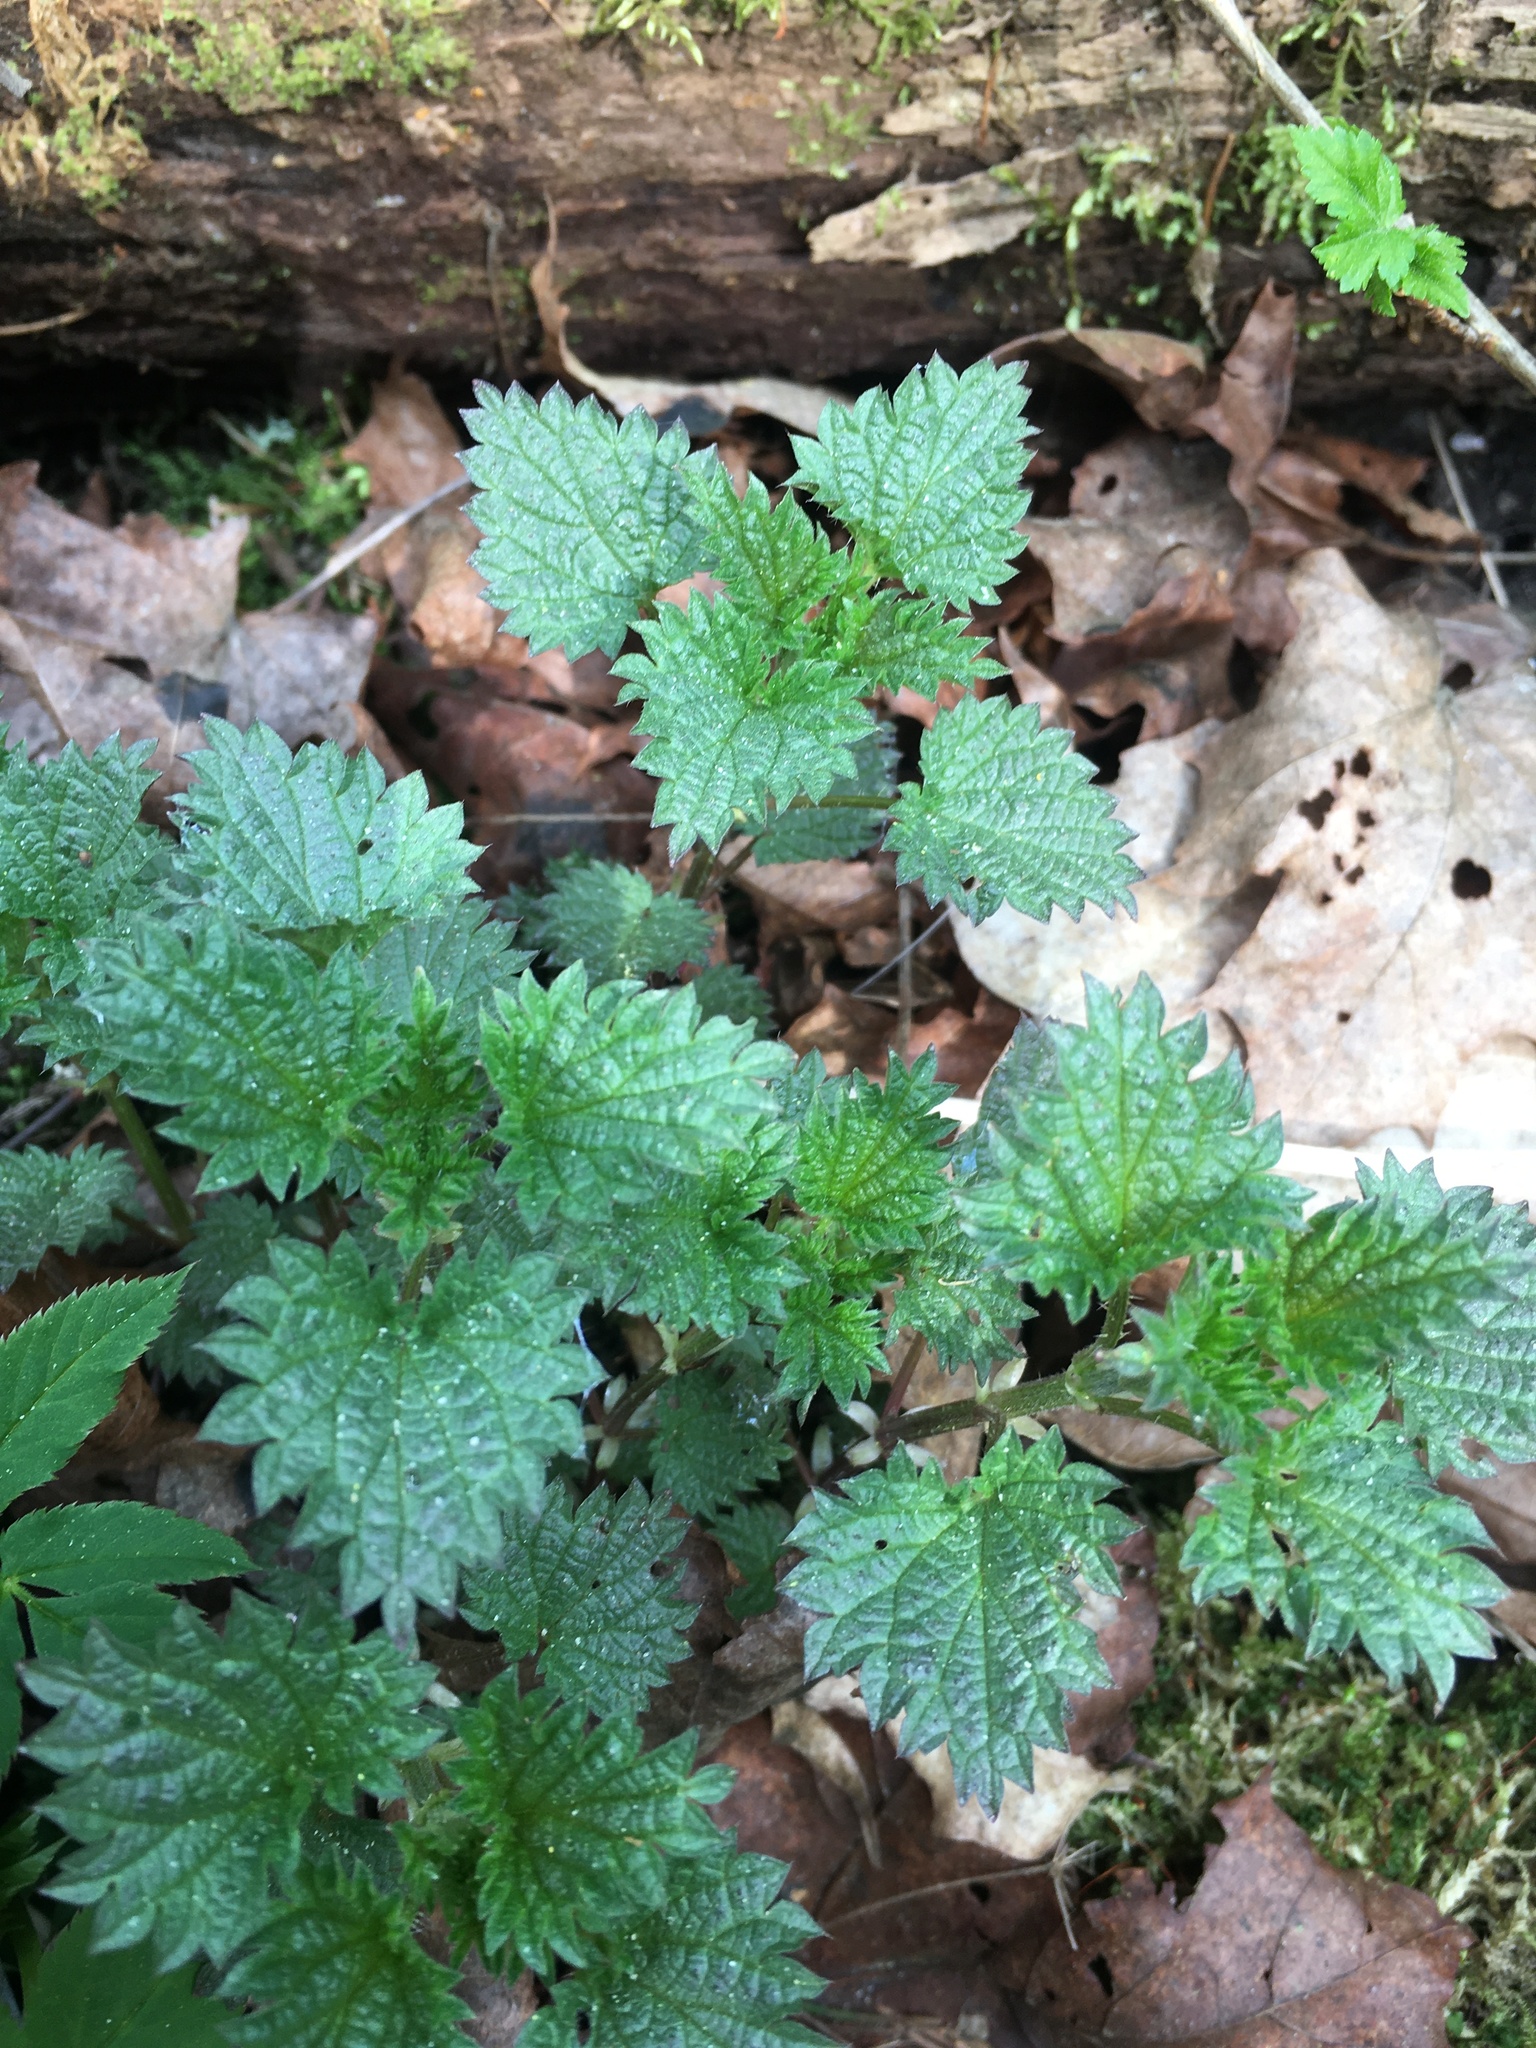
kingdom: Plantae
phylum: Tracheophyta
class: Magnoliopsida
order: Rosales
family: Urticaceae
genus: Urtica
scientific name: Urtica dioica
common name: Common nettle
